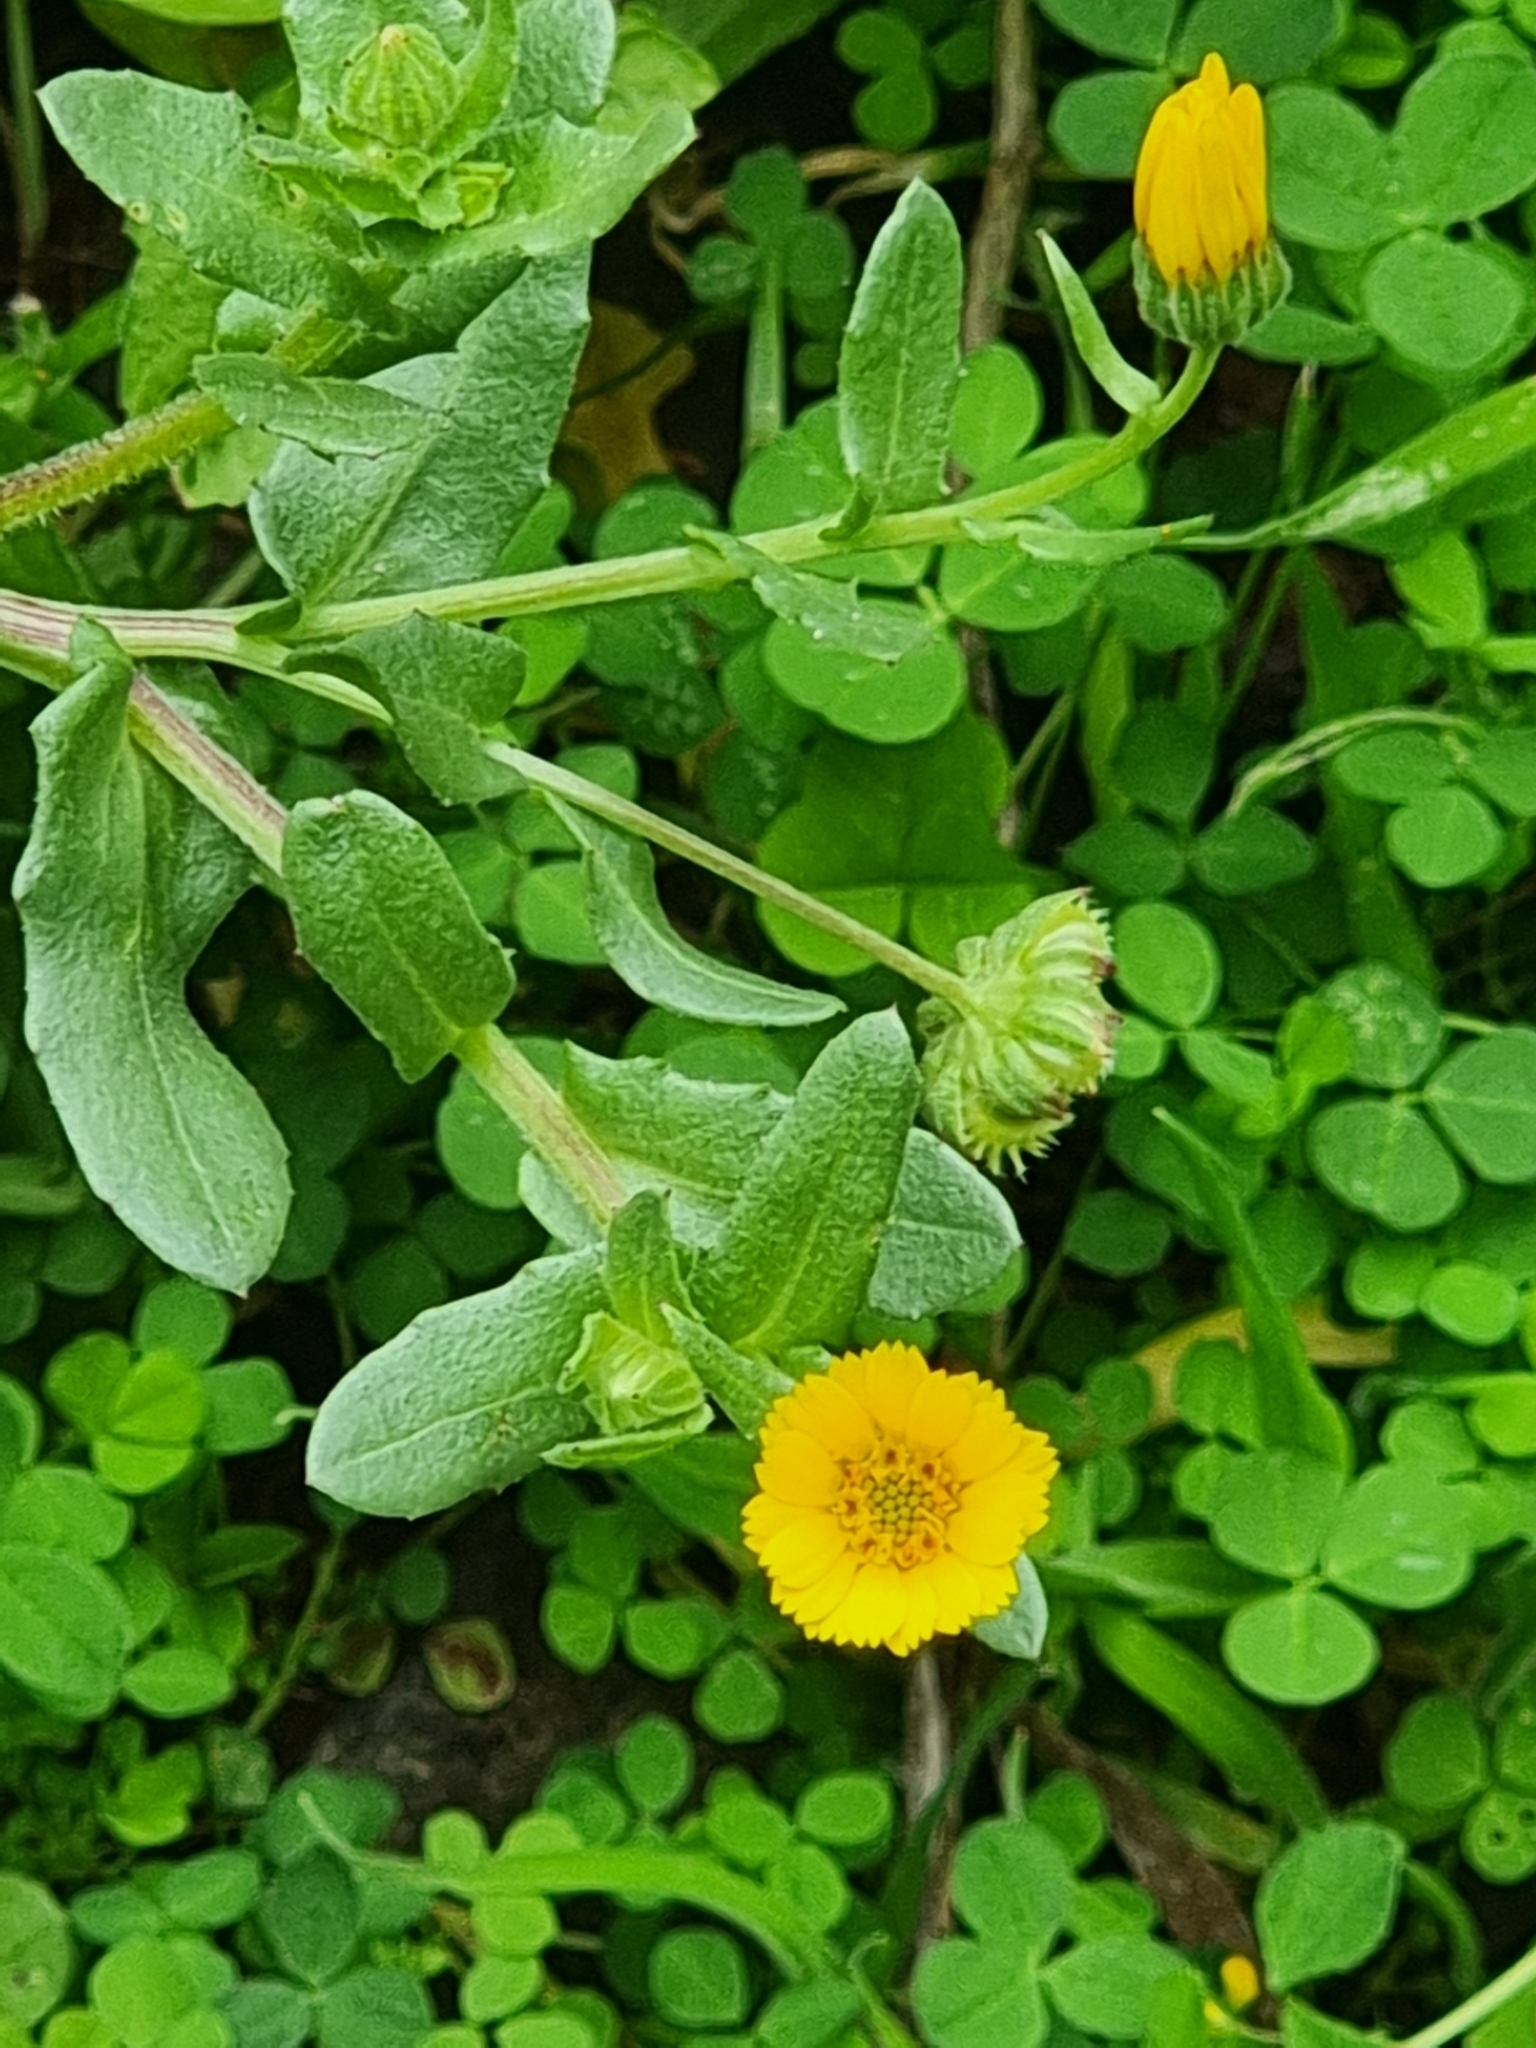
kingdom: Plantae
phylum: Tracheophyta
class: Magnoliopsida
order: Asterales
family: Asteraceae
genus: Calendula
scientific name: Calendula arvensis
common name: Field marigold
